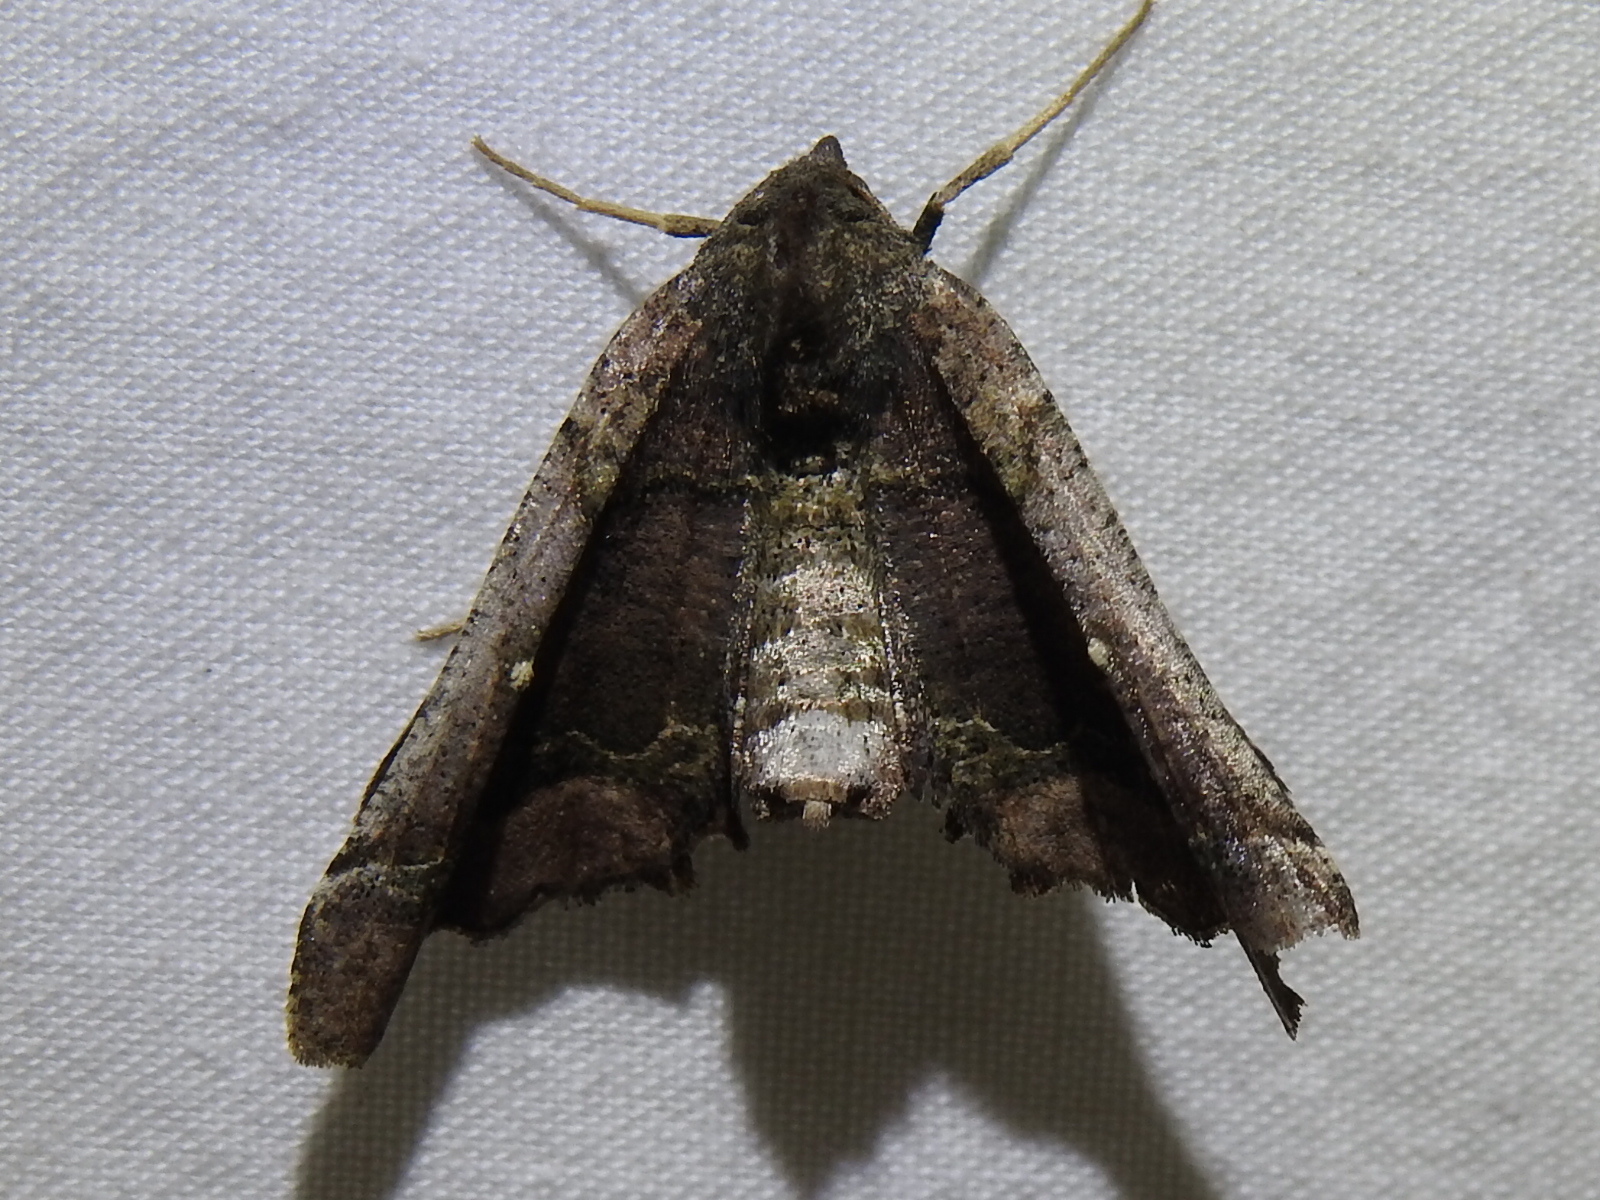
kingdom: Animalia
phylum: Arthropoda
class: Insecta
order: Lepidoptera
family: Geometridae
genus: Pero
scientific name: Pero meskaria
